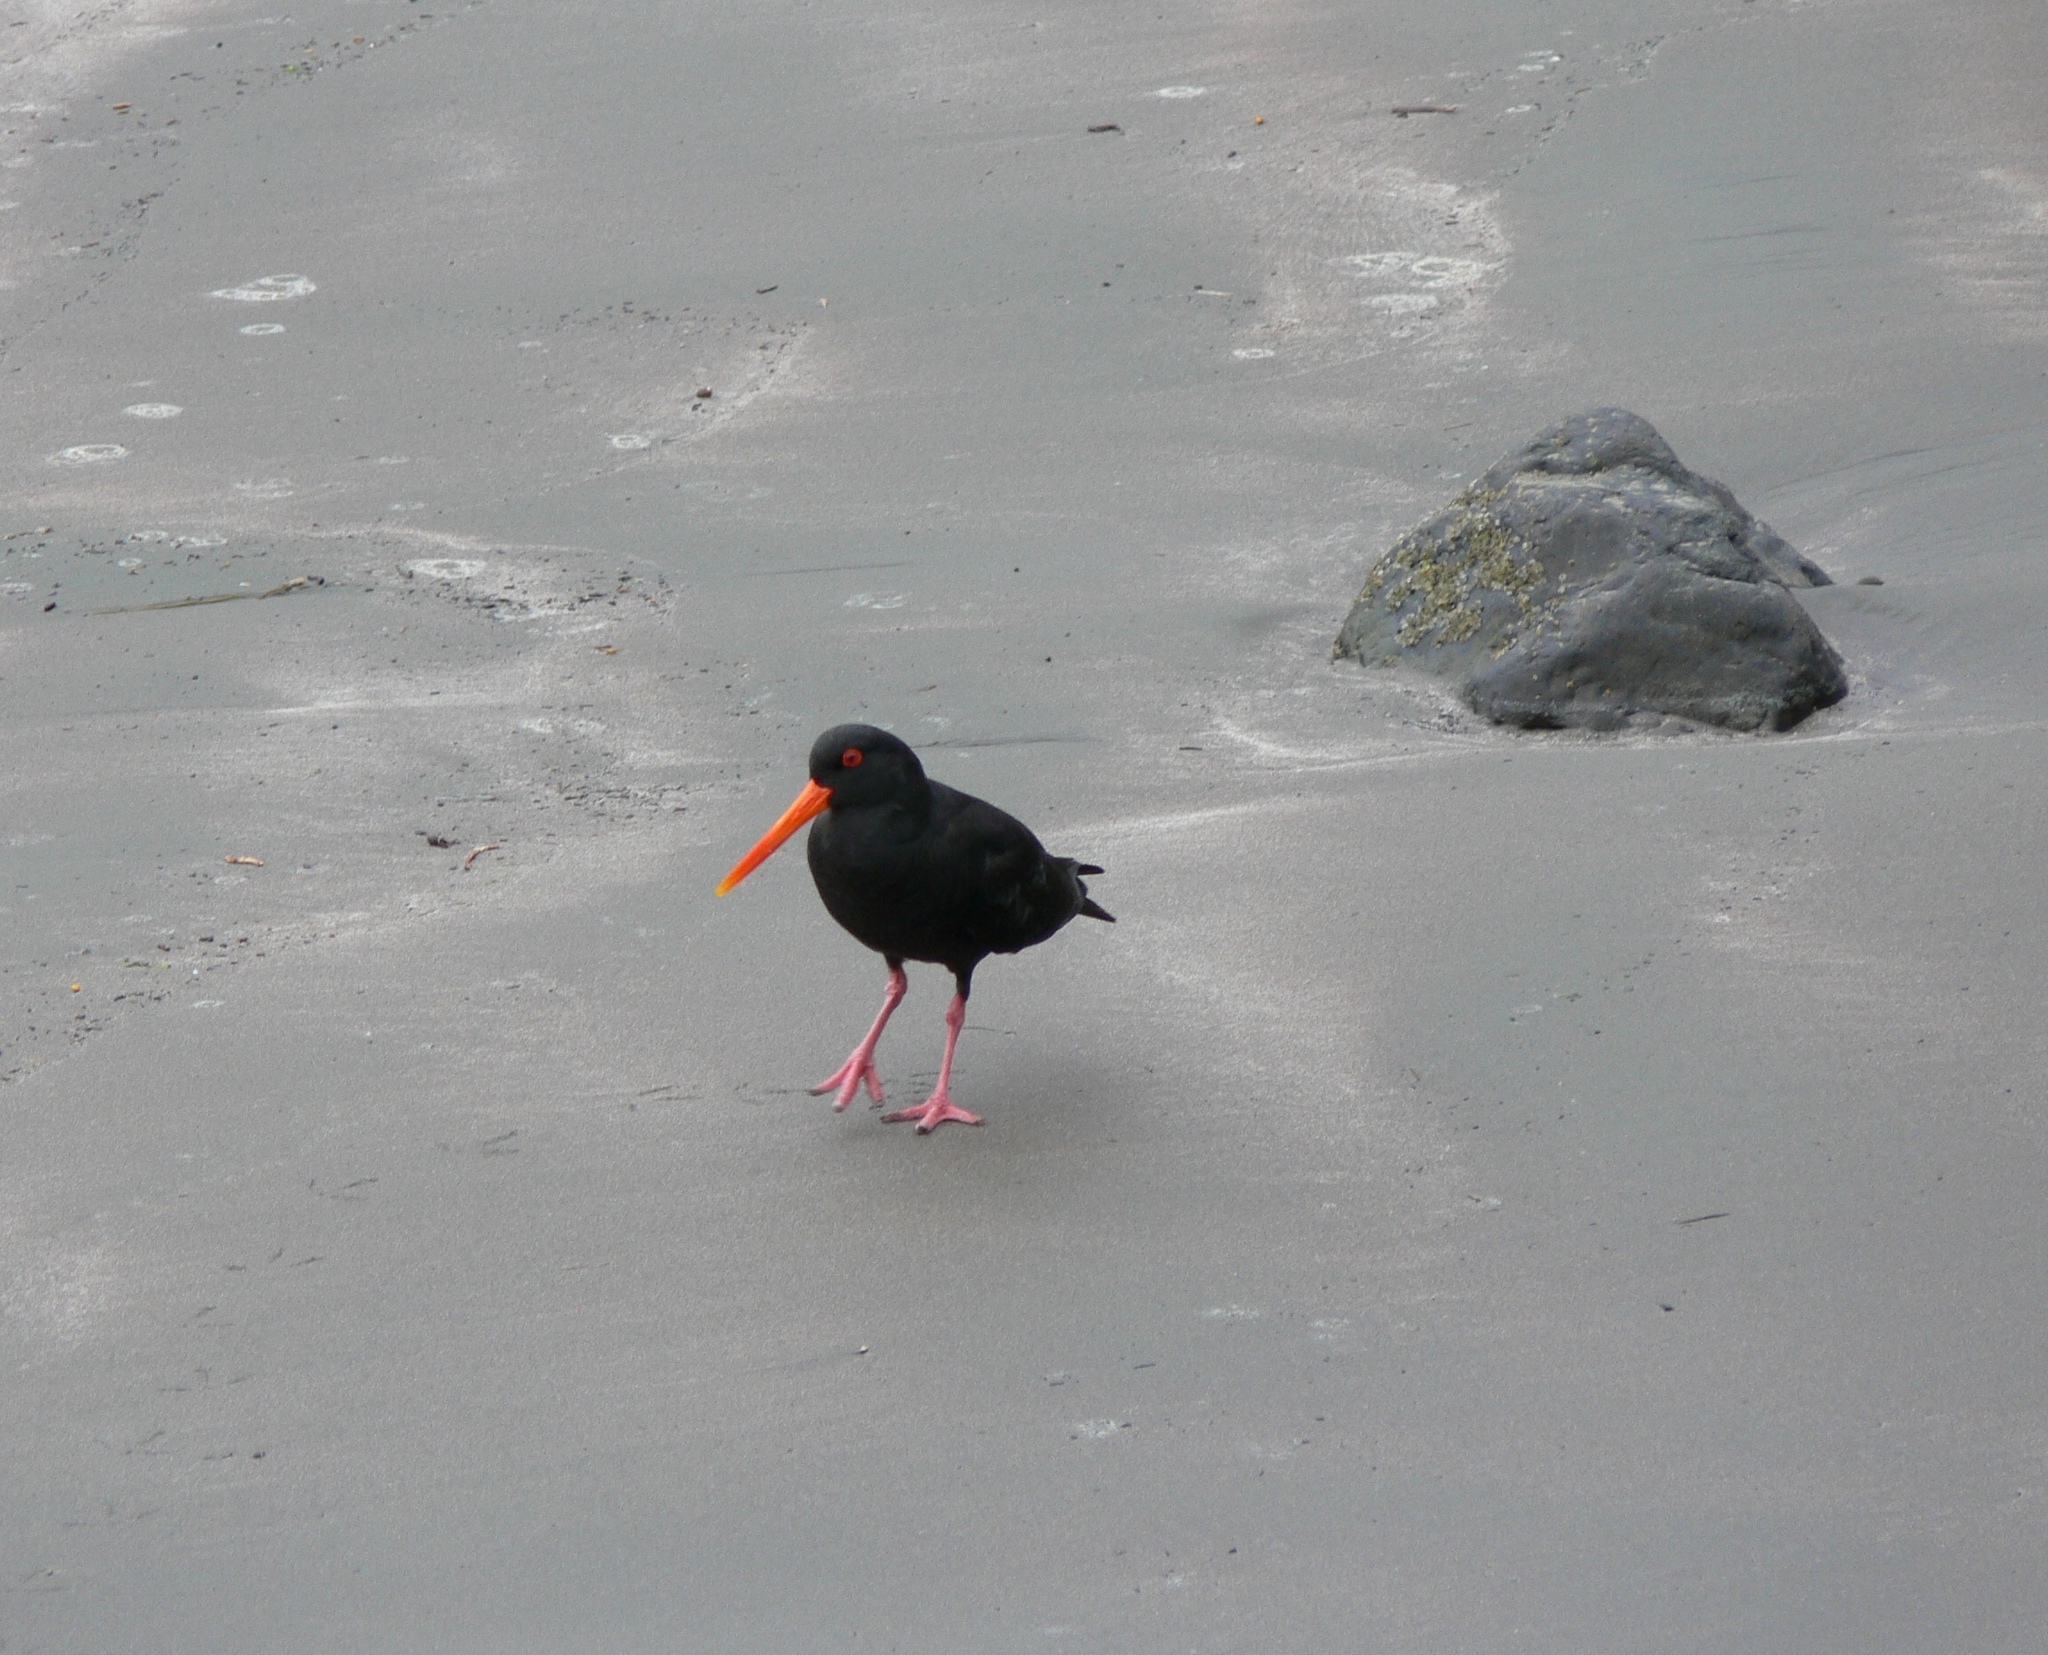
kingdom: Animalia
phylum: Chordata
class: Aves
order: Charadriiformes
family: Haematopodidae
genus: Haematopus
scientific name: Haematopus unicolor
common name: Variable oystercatcher
